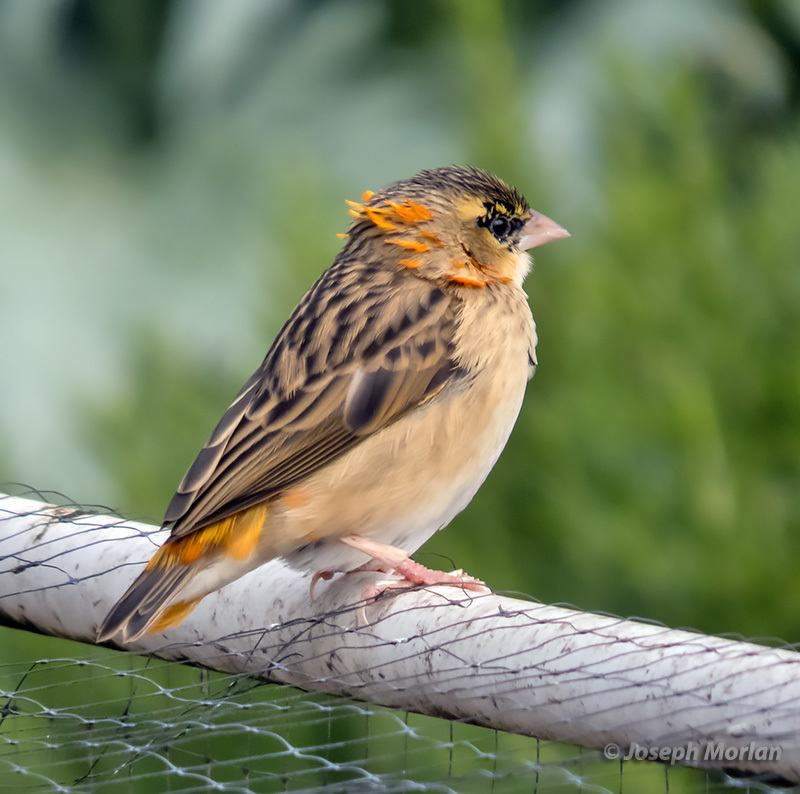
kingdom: Animalia
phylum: Chordata
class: Aves
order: Passeriformes
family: Ploceidae
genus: Euplectes
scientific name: Euplectes franciscanus
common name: Northern red bishop
